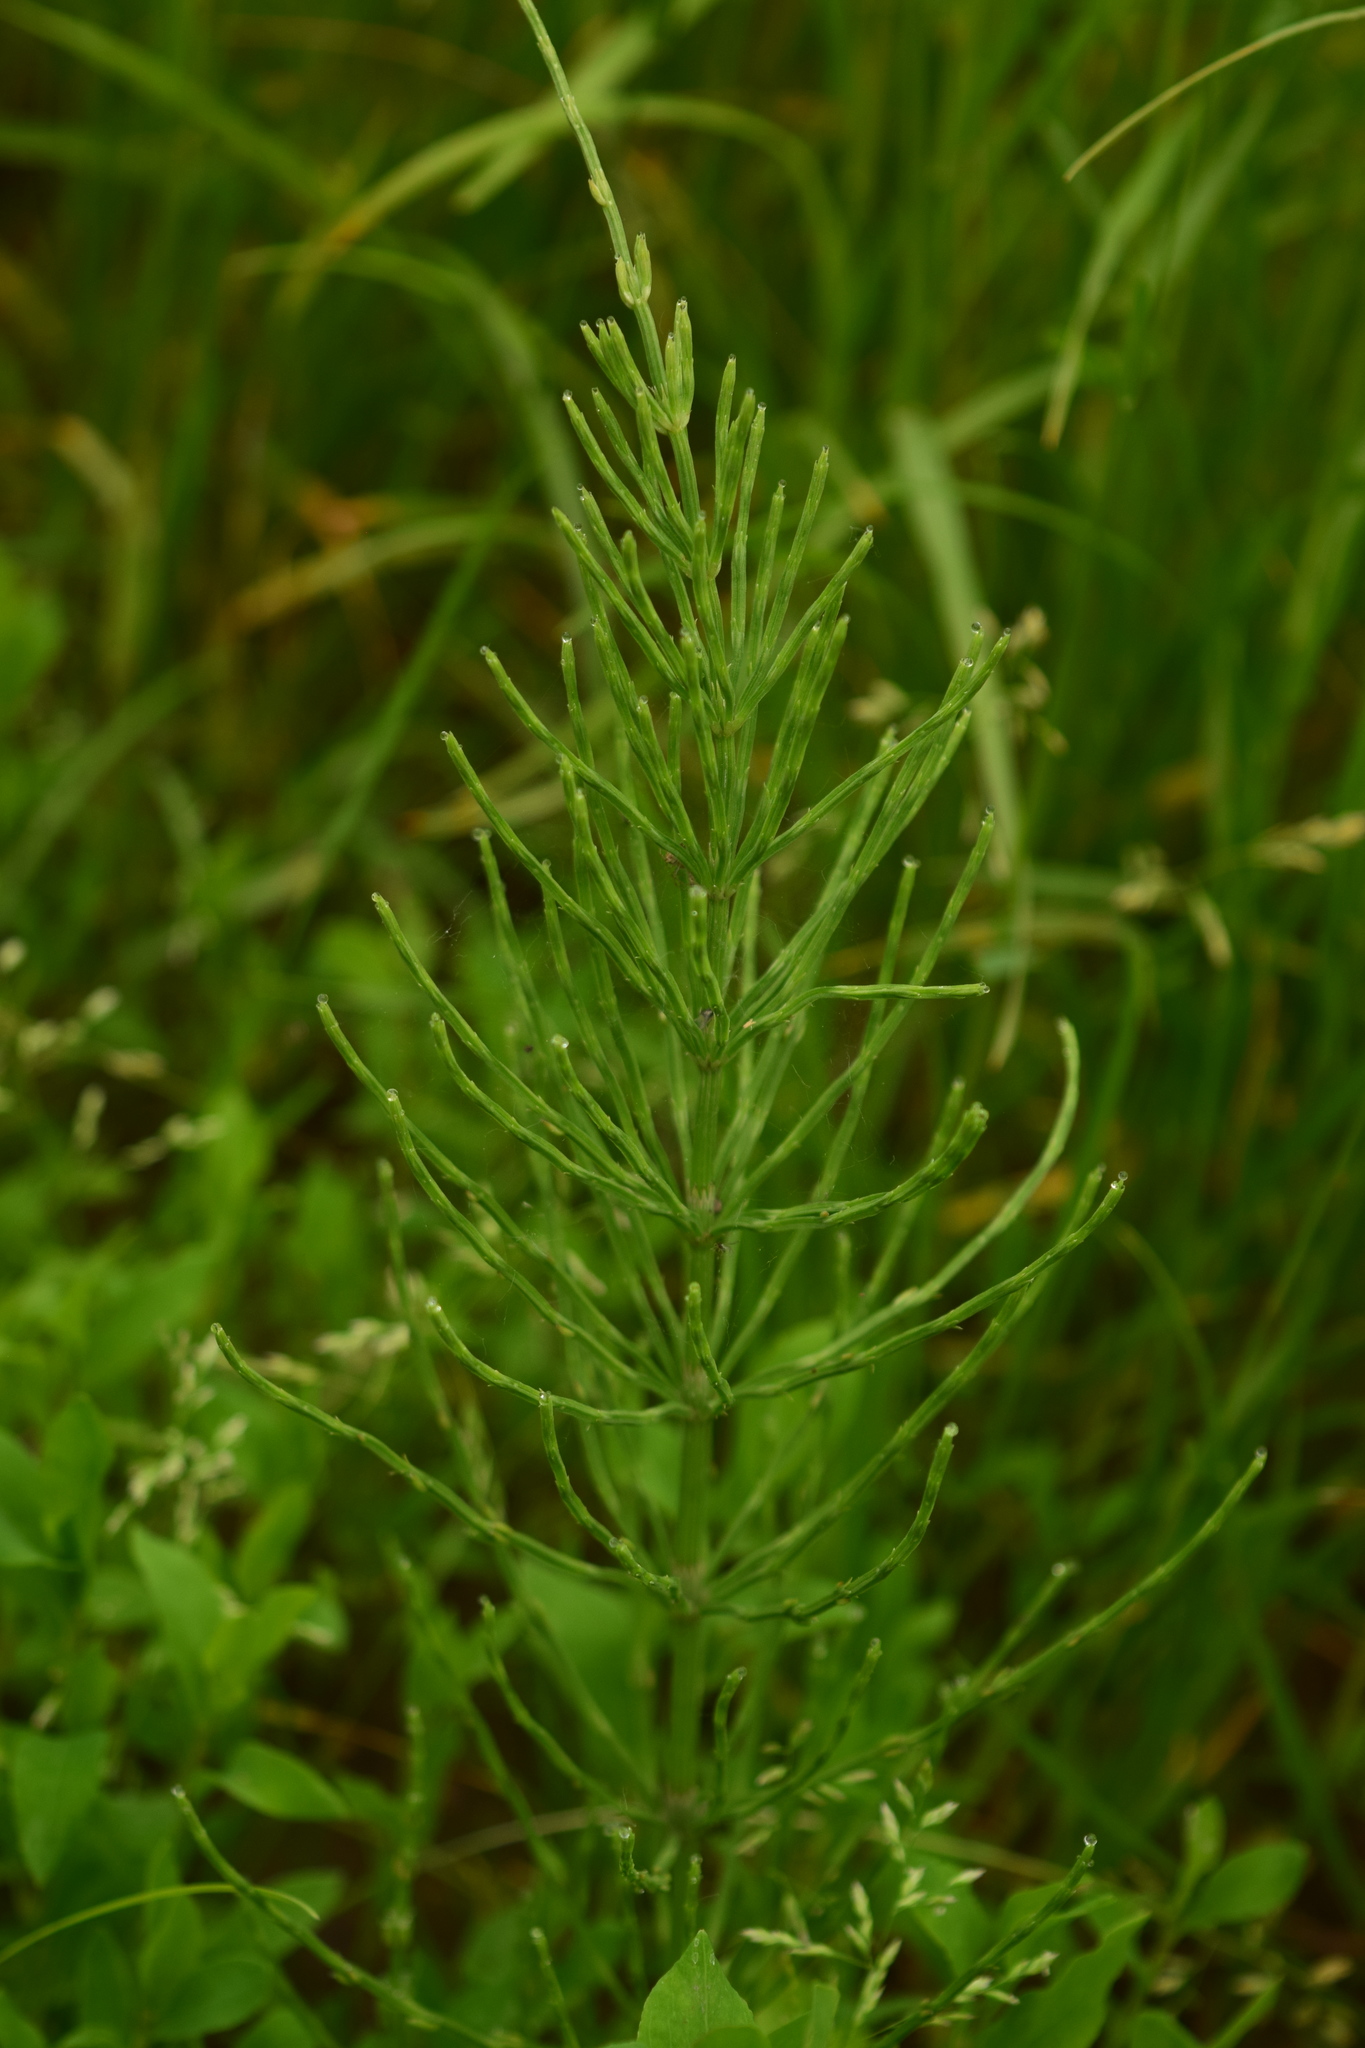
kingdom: Plantae
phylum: Tracheophyta
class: Polypodiopsida
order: Equisetales
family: Equisetaceae
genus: Equisetum
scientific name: Equisetum arvense
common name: Field horsetail
